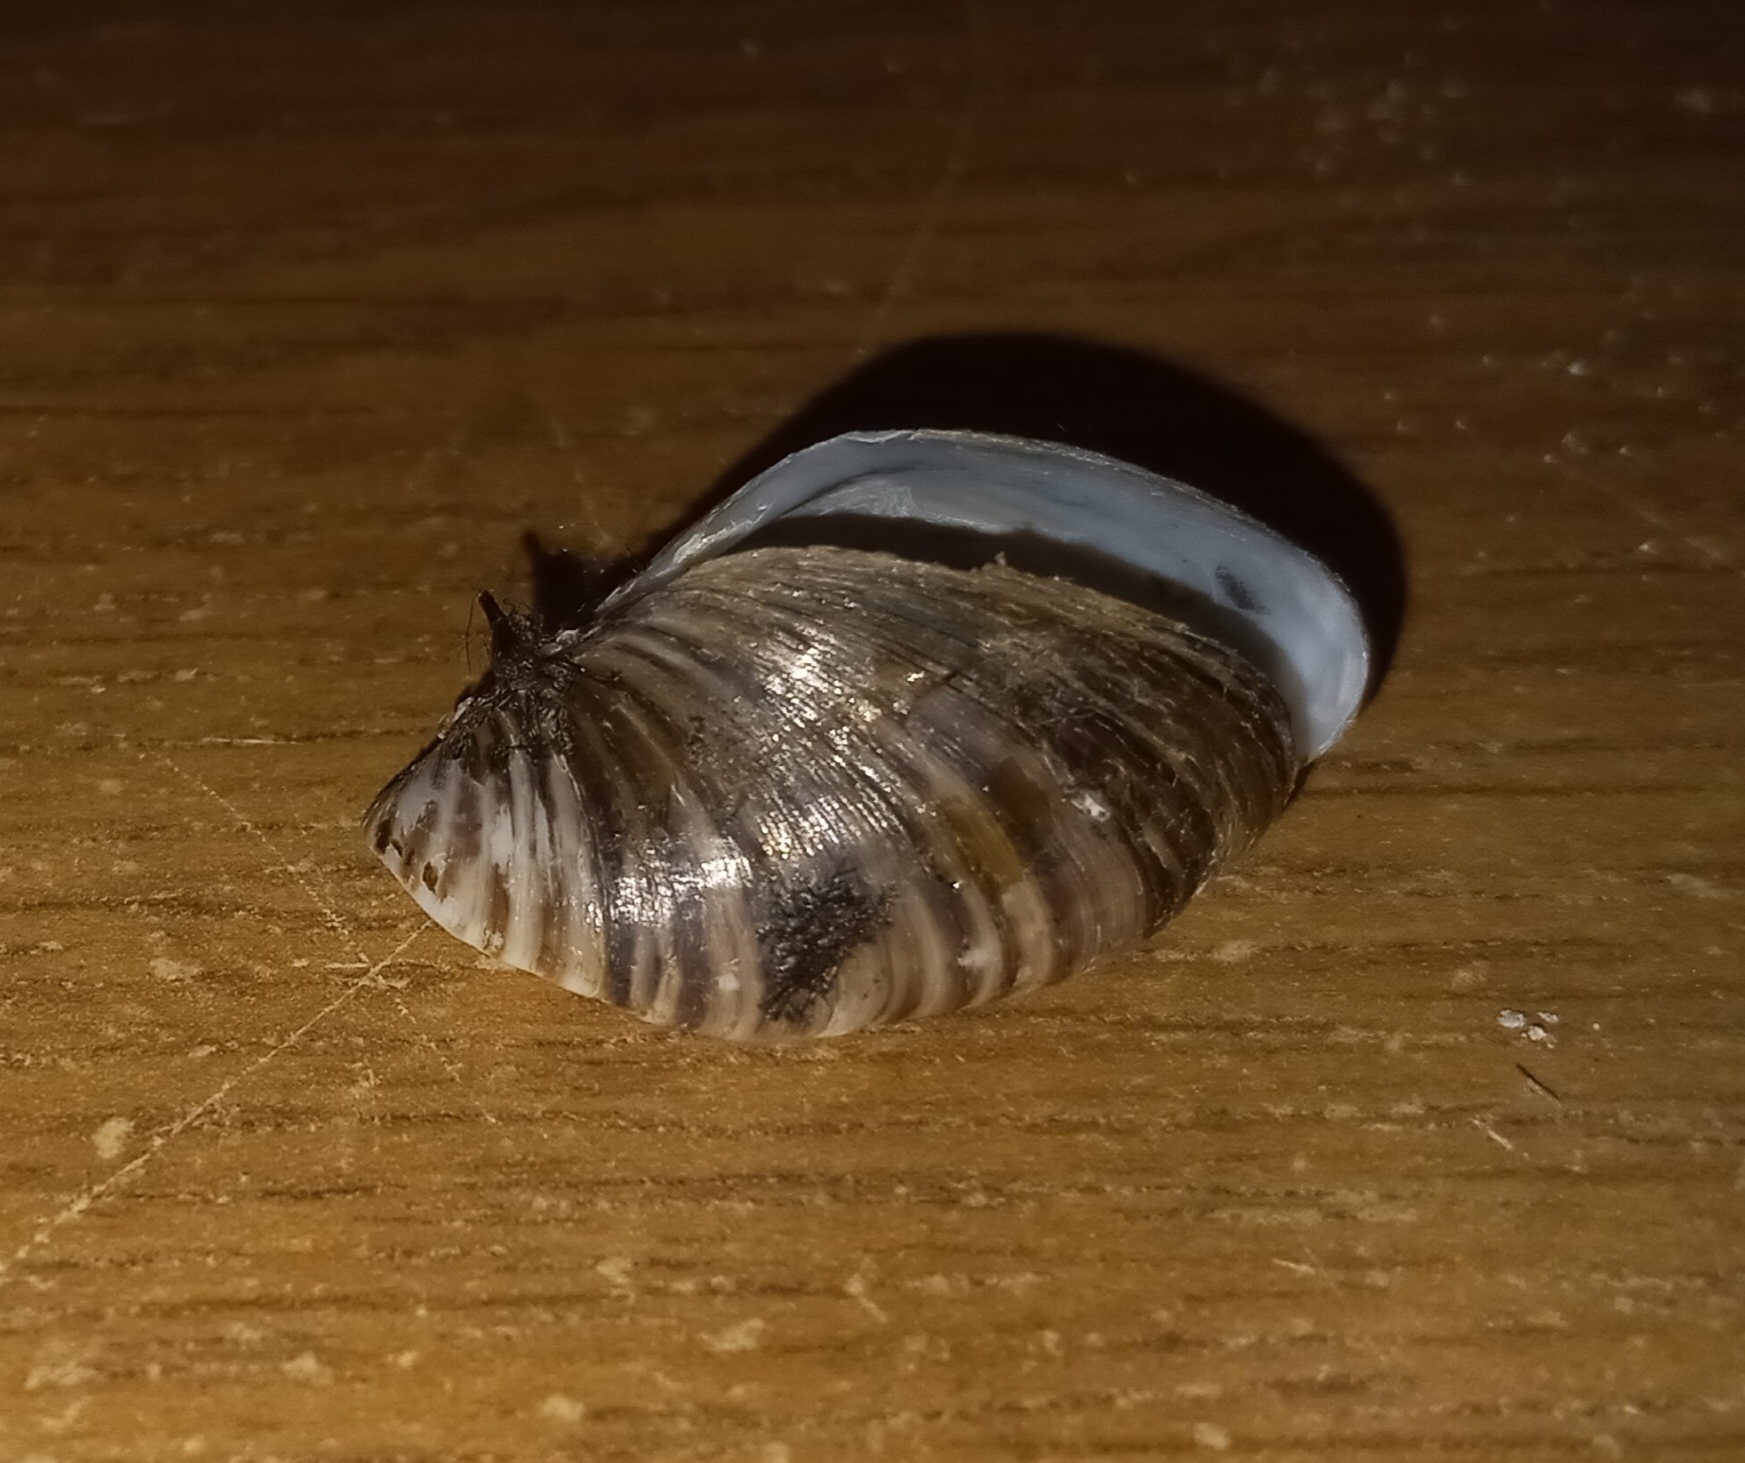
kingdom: Animalia
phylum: Mollusca
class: Bivalvia
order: Myida
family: Dreissenidae
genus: Dreissena
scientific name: Dreissena polymorpha
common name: Zebra mussel
